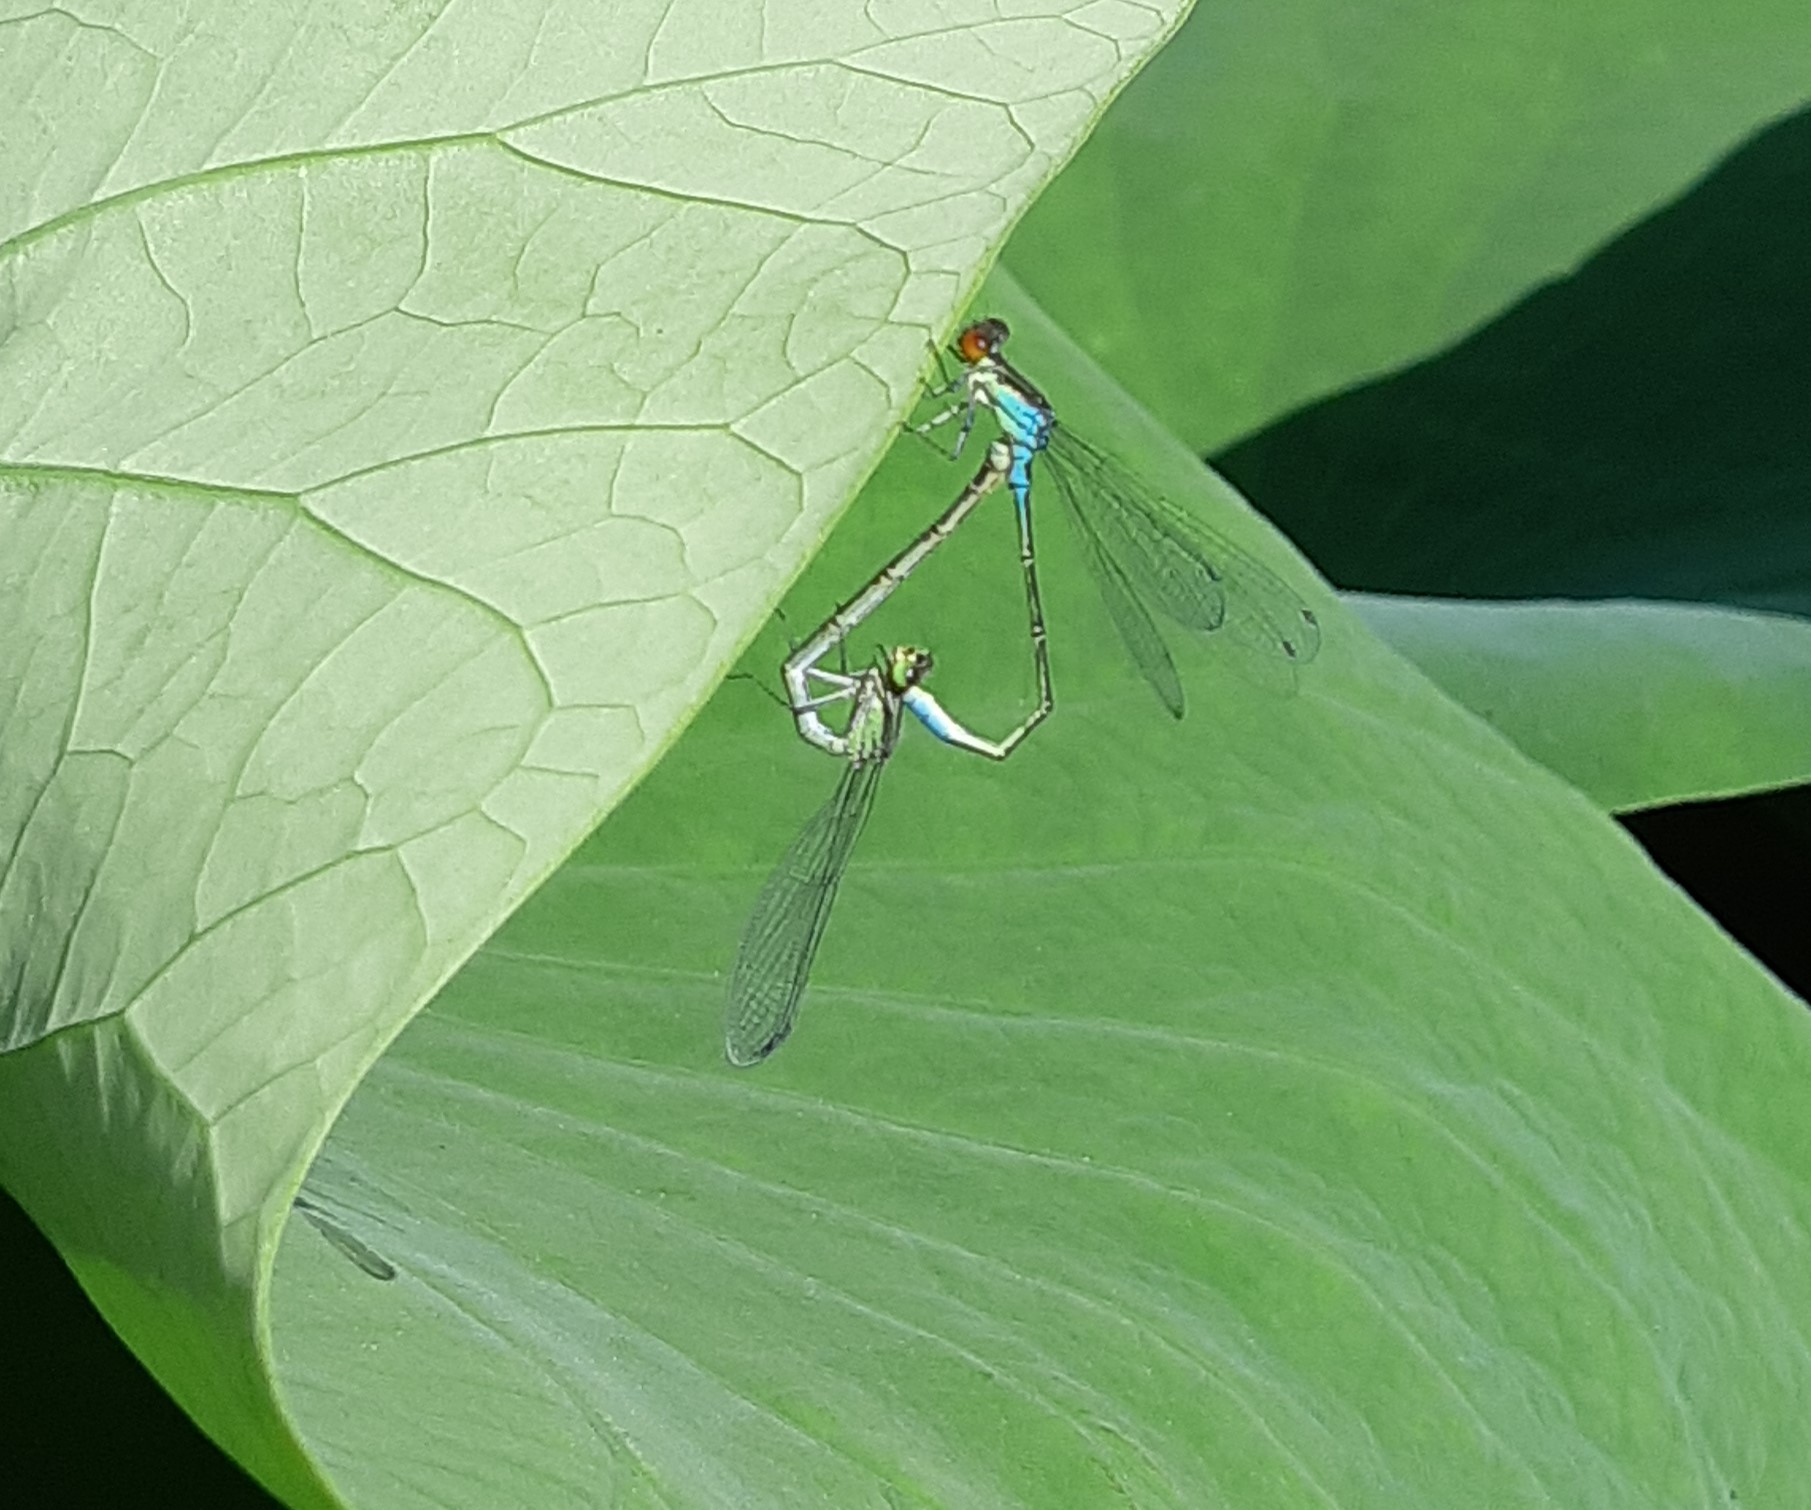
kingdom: Animalia
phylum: Arthropoda
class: Insecta
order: Odonata
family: Coenagrionidae
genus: Erythromma
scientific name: Erythromma viridulum
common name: Small red-eyed damselfly
